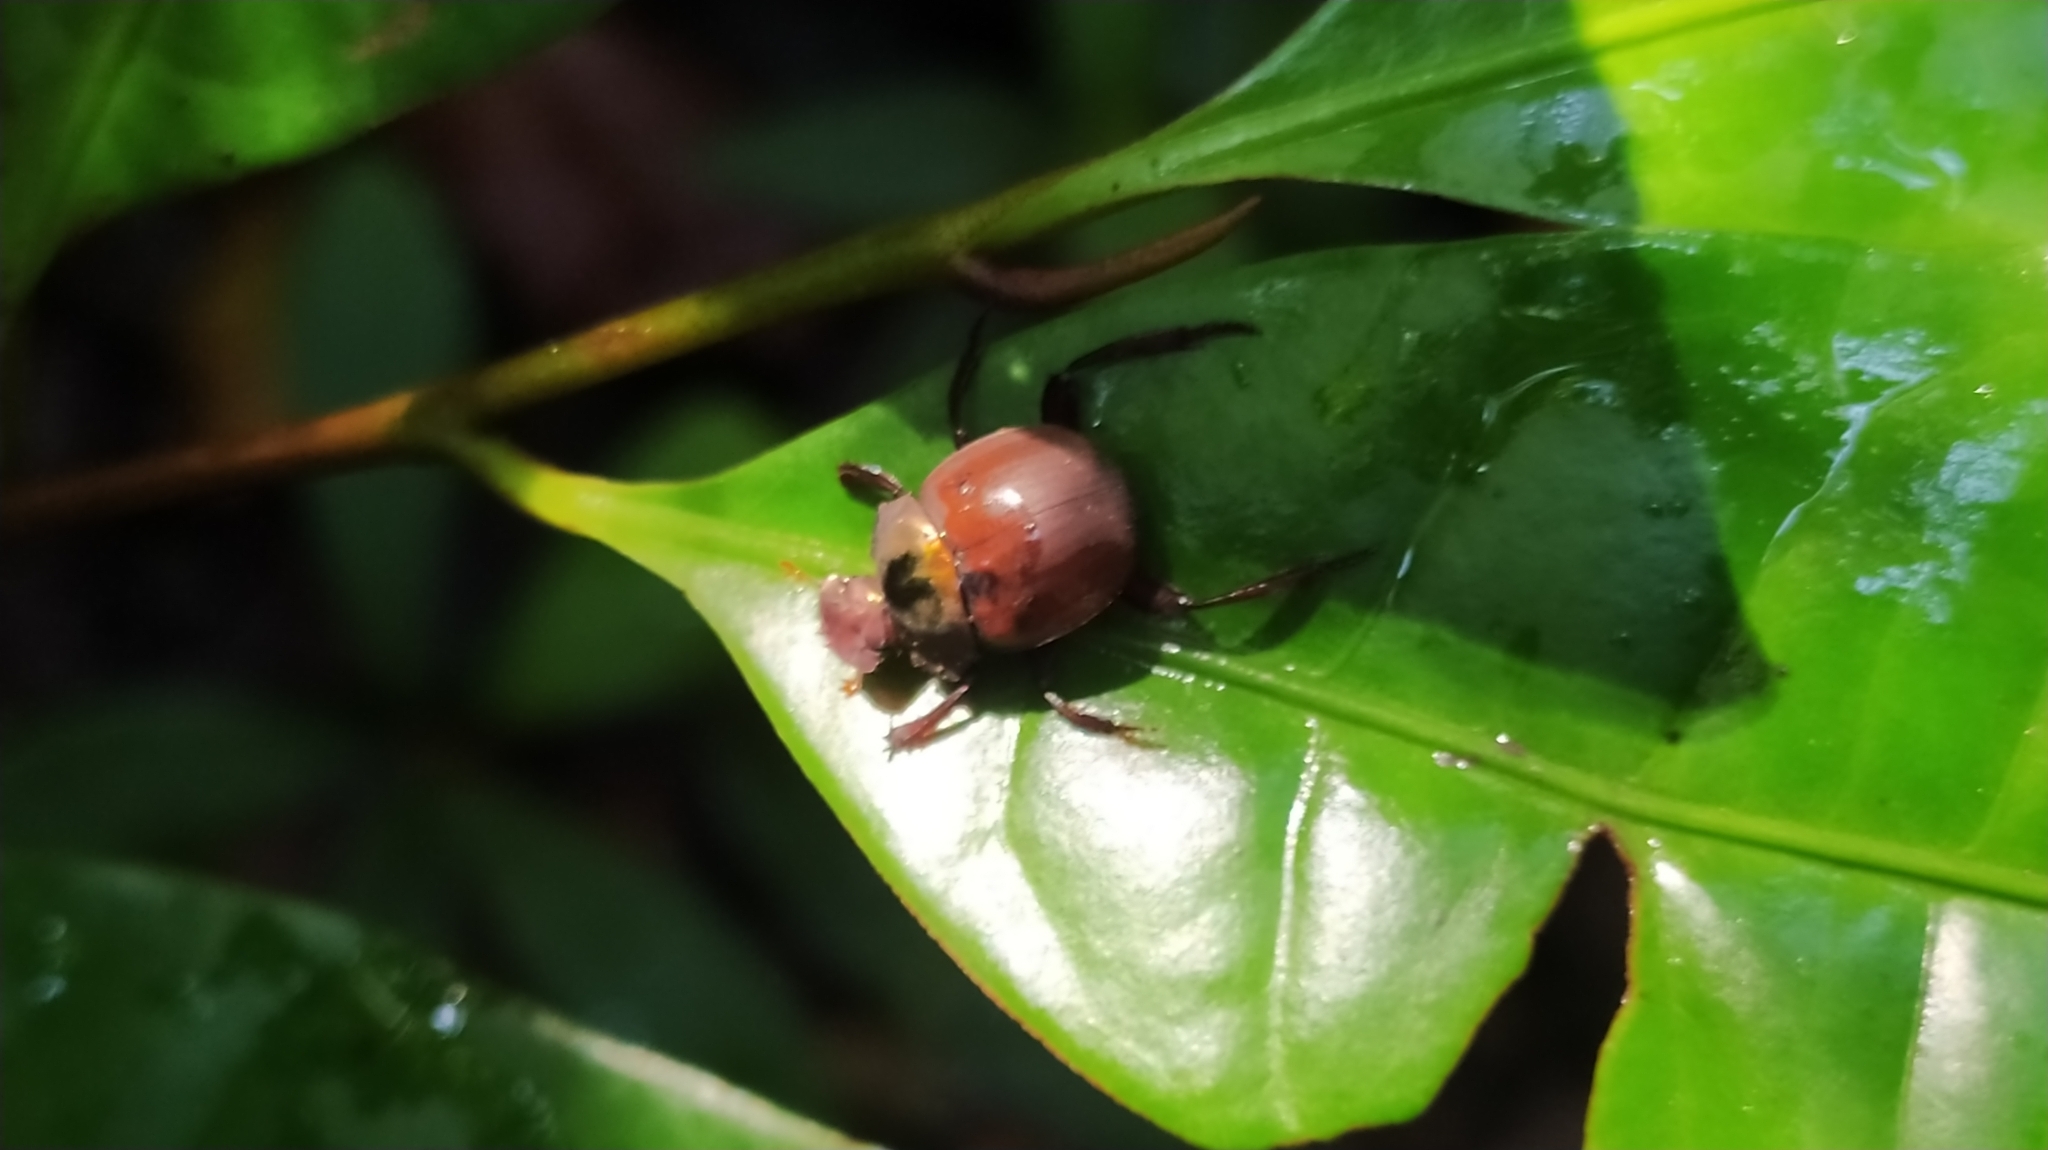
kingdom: Animalia
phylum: Arthropoda
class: Insecta
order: Coleoptera
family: Scarabaeidae
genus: Hansreia
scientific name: Hansreia affinis
